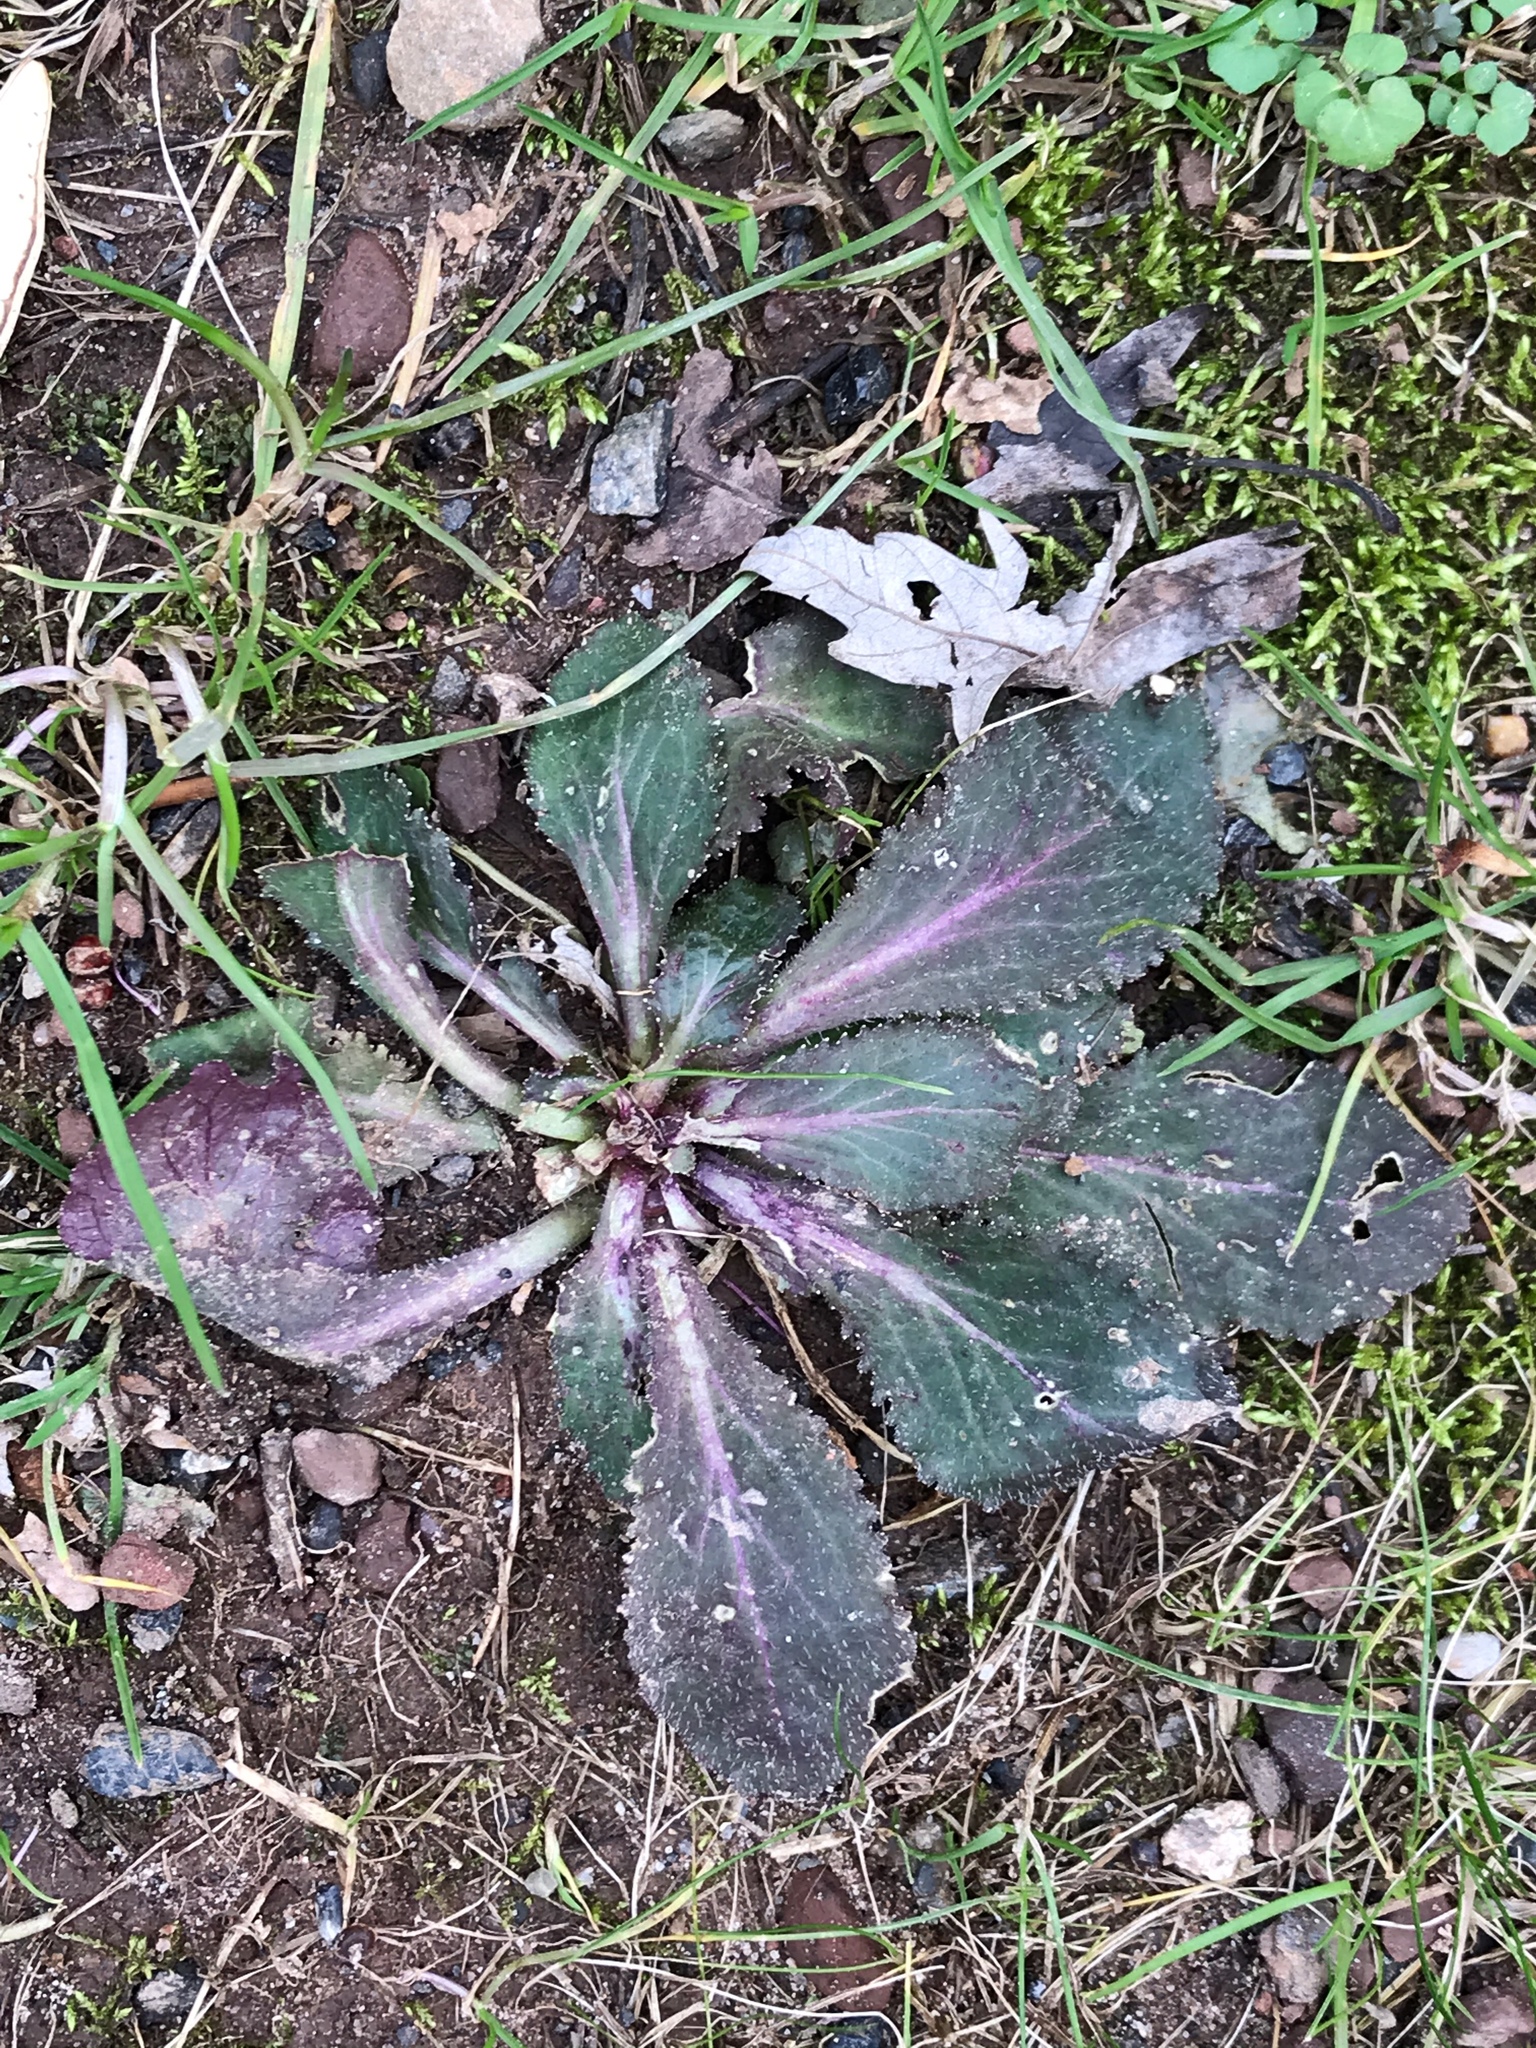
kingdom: Plantae
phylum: Tracheophyta
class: Magnoliopsida
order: Asterales
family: Campanulaceae
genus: Lobelia
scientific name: Lobelia inflata
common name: Indian tobacco
